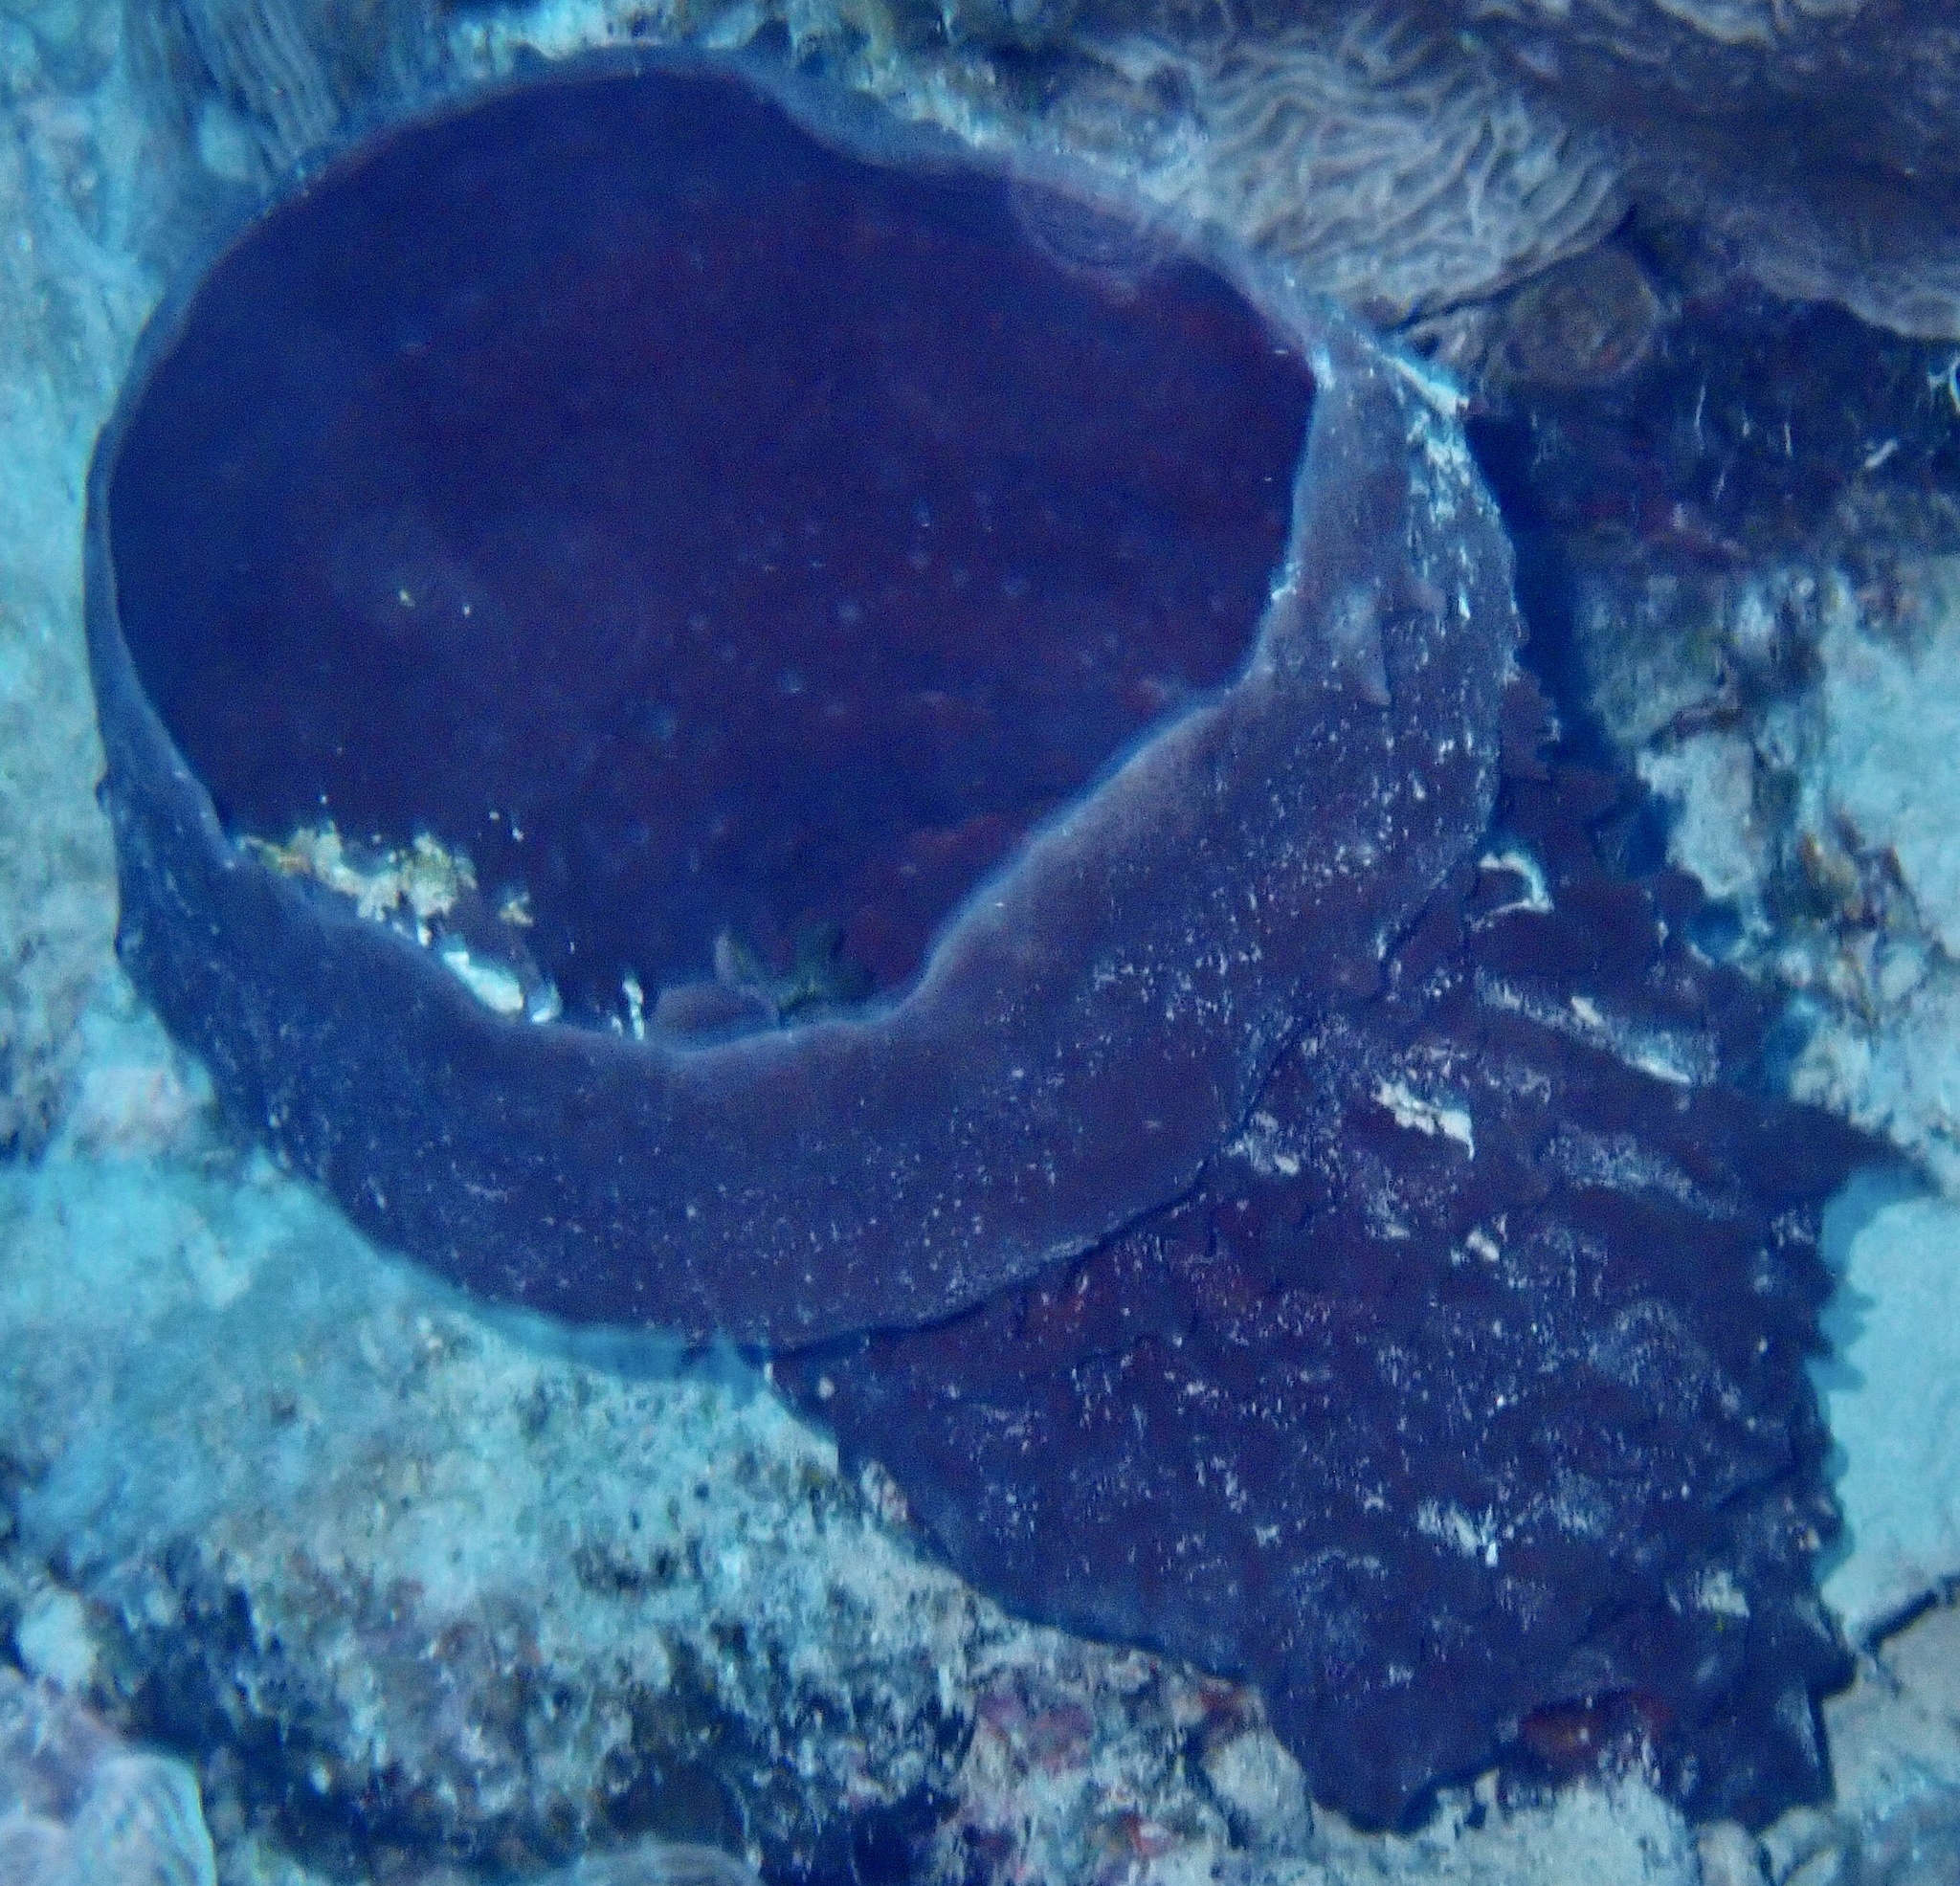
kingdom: Animalia
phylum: Porifera
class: Demospongiae
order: Haplosclerida
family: Callyspongiidae
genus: Callyspongia
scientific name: Callyspongia crassa
